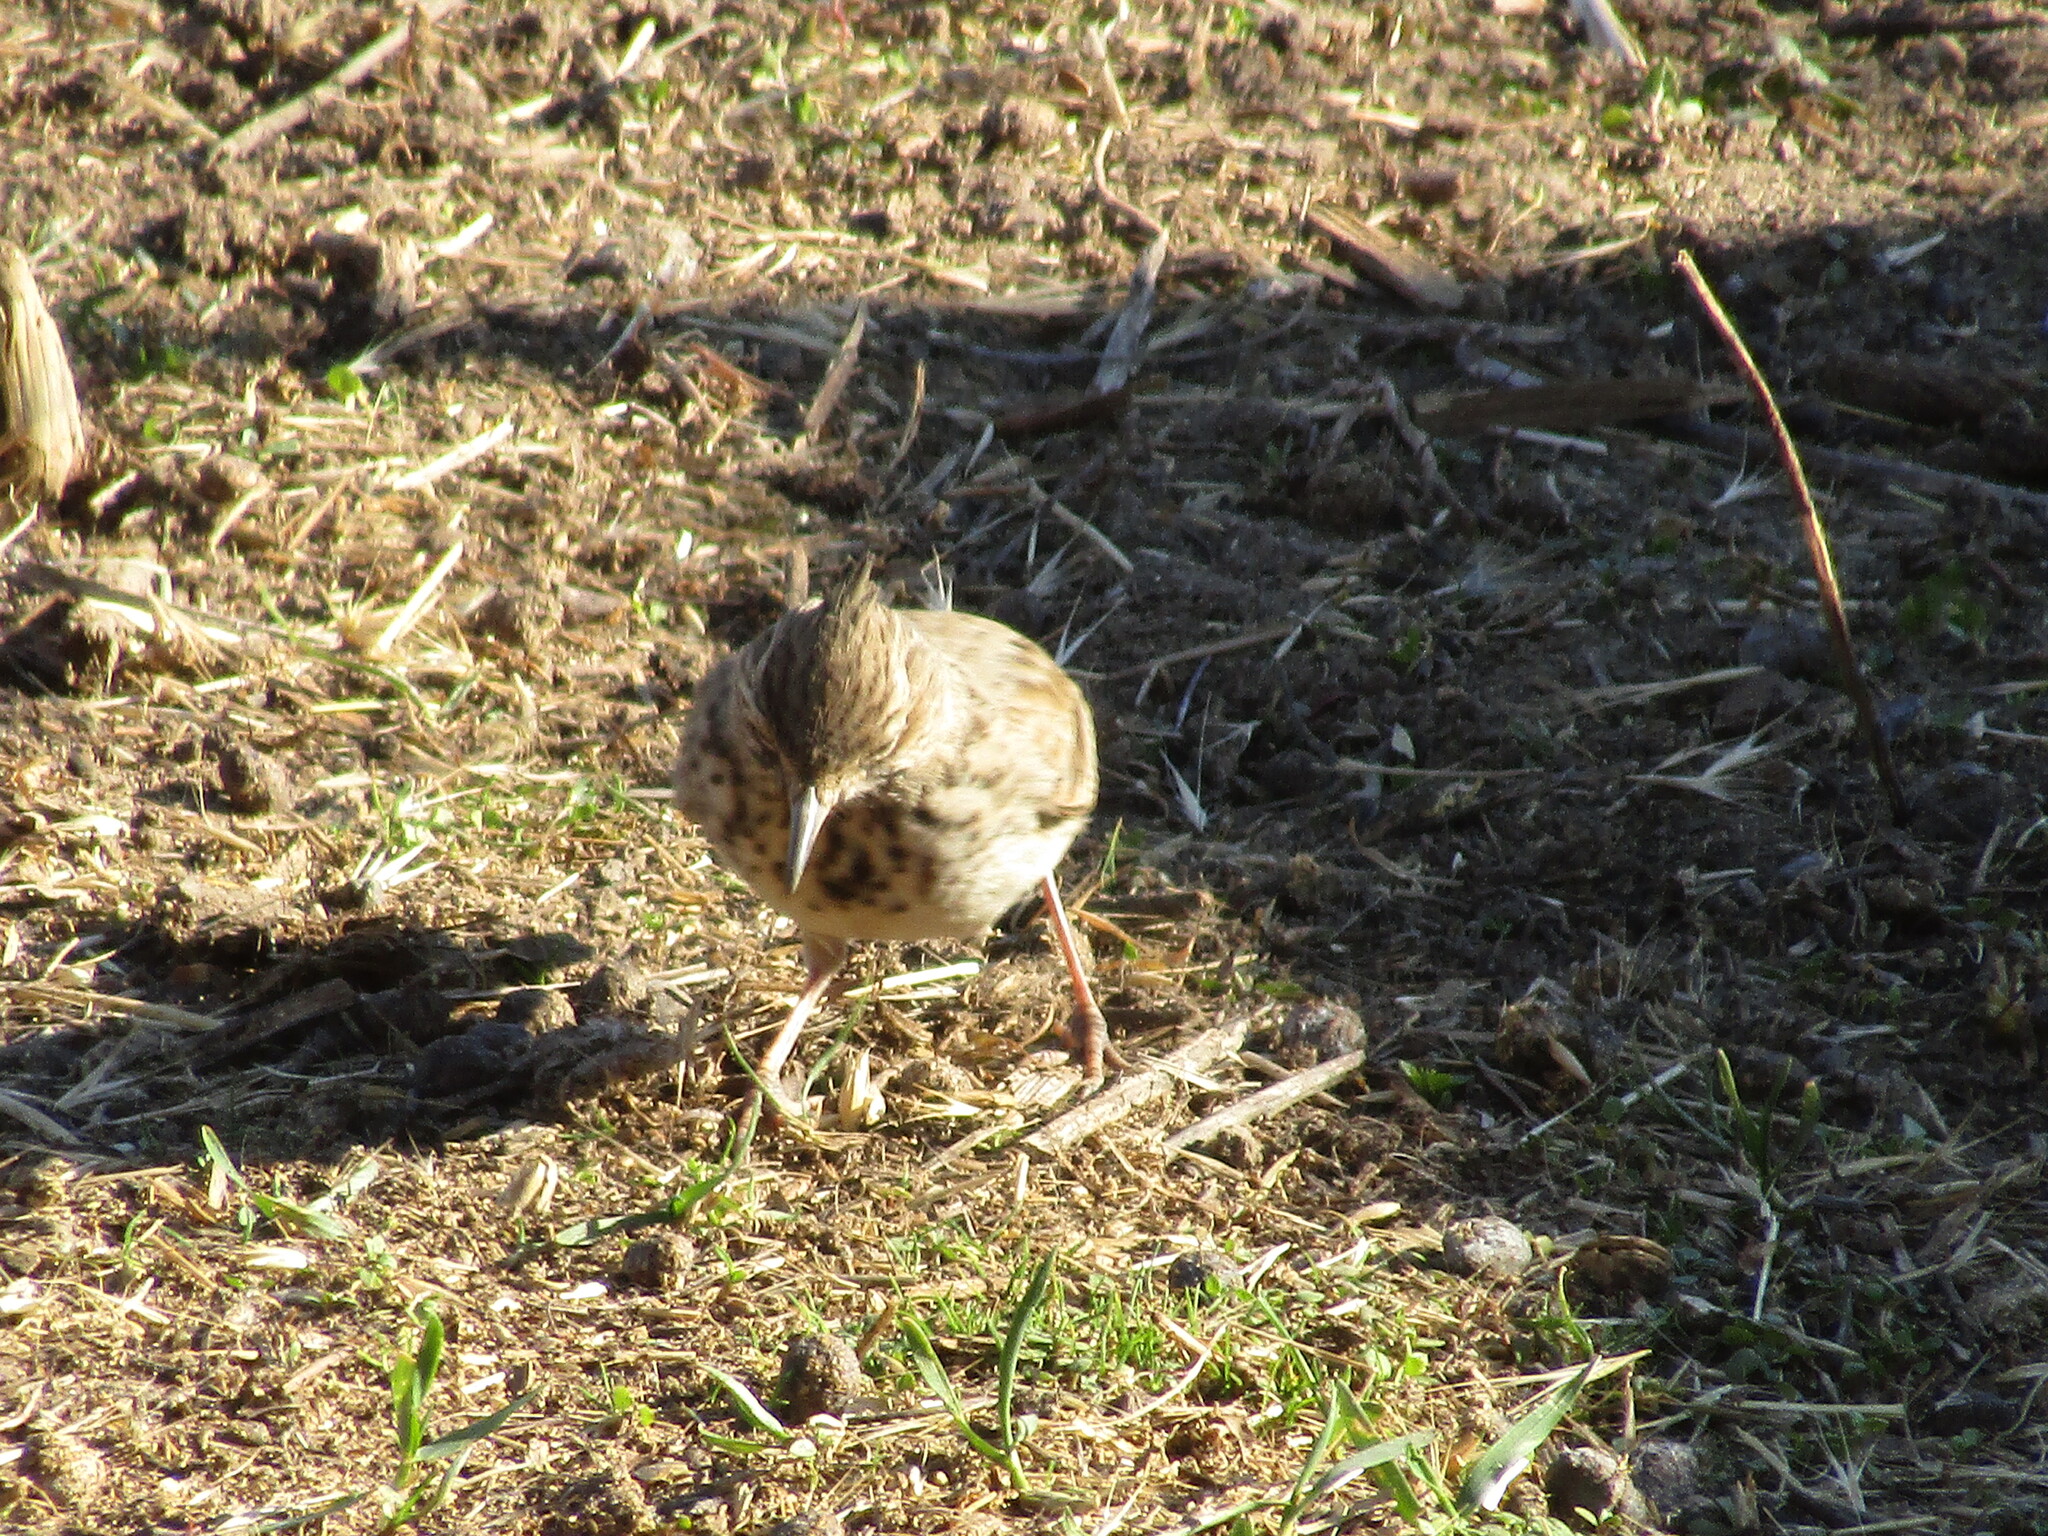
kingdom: Animalia
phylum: Chordata
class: Aves
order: Passeriformes
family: Alaudidae
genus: Galerida
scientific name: Galerida cristata
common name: Crested lark
